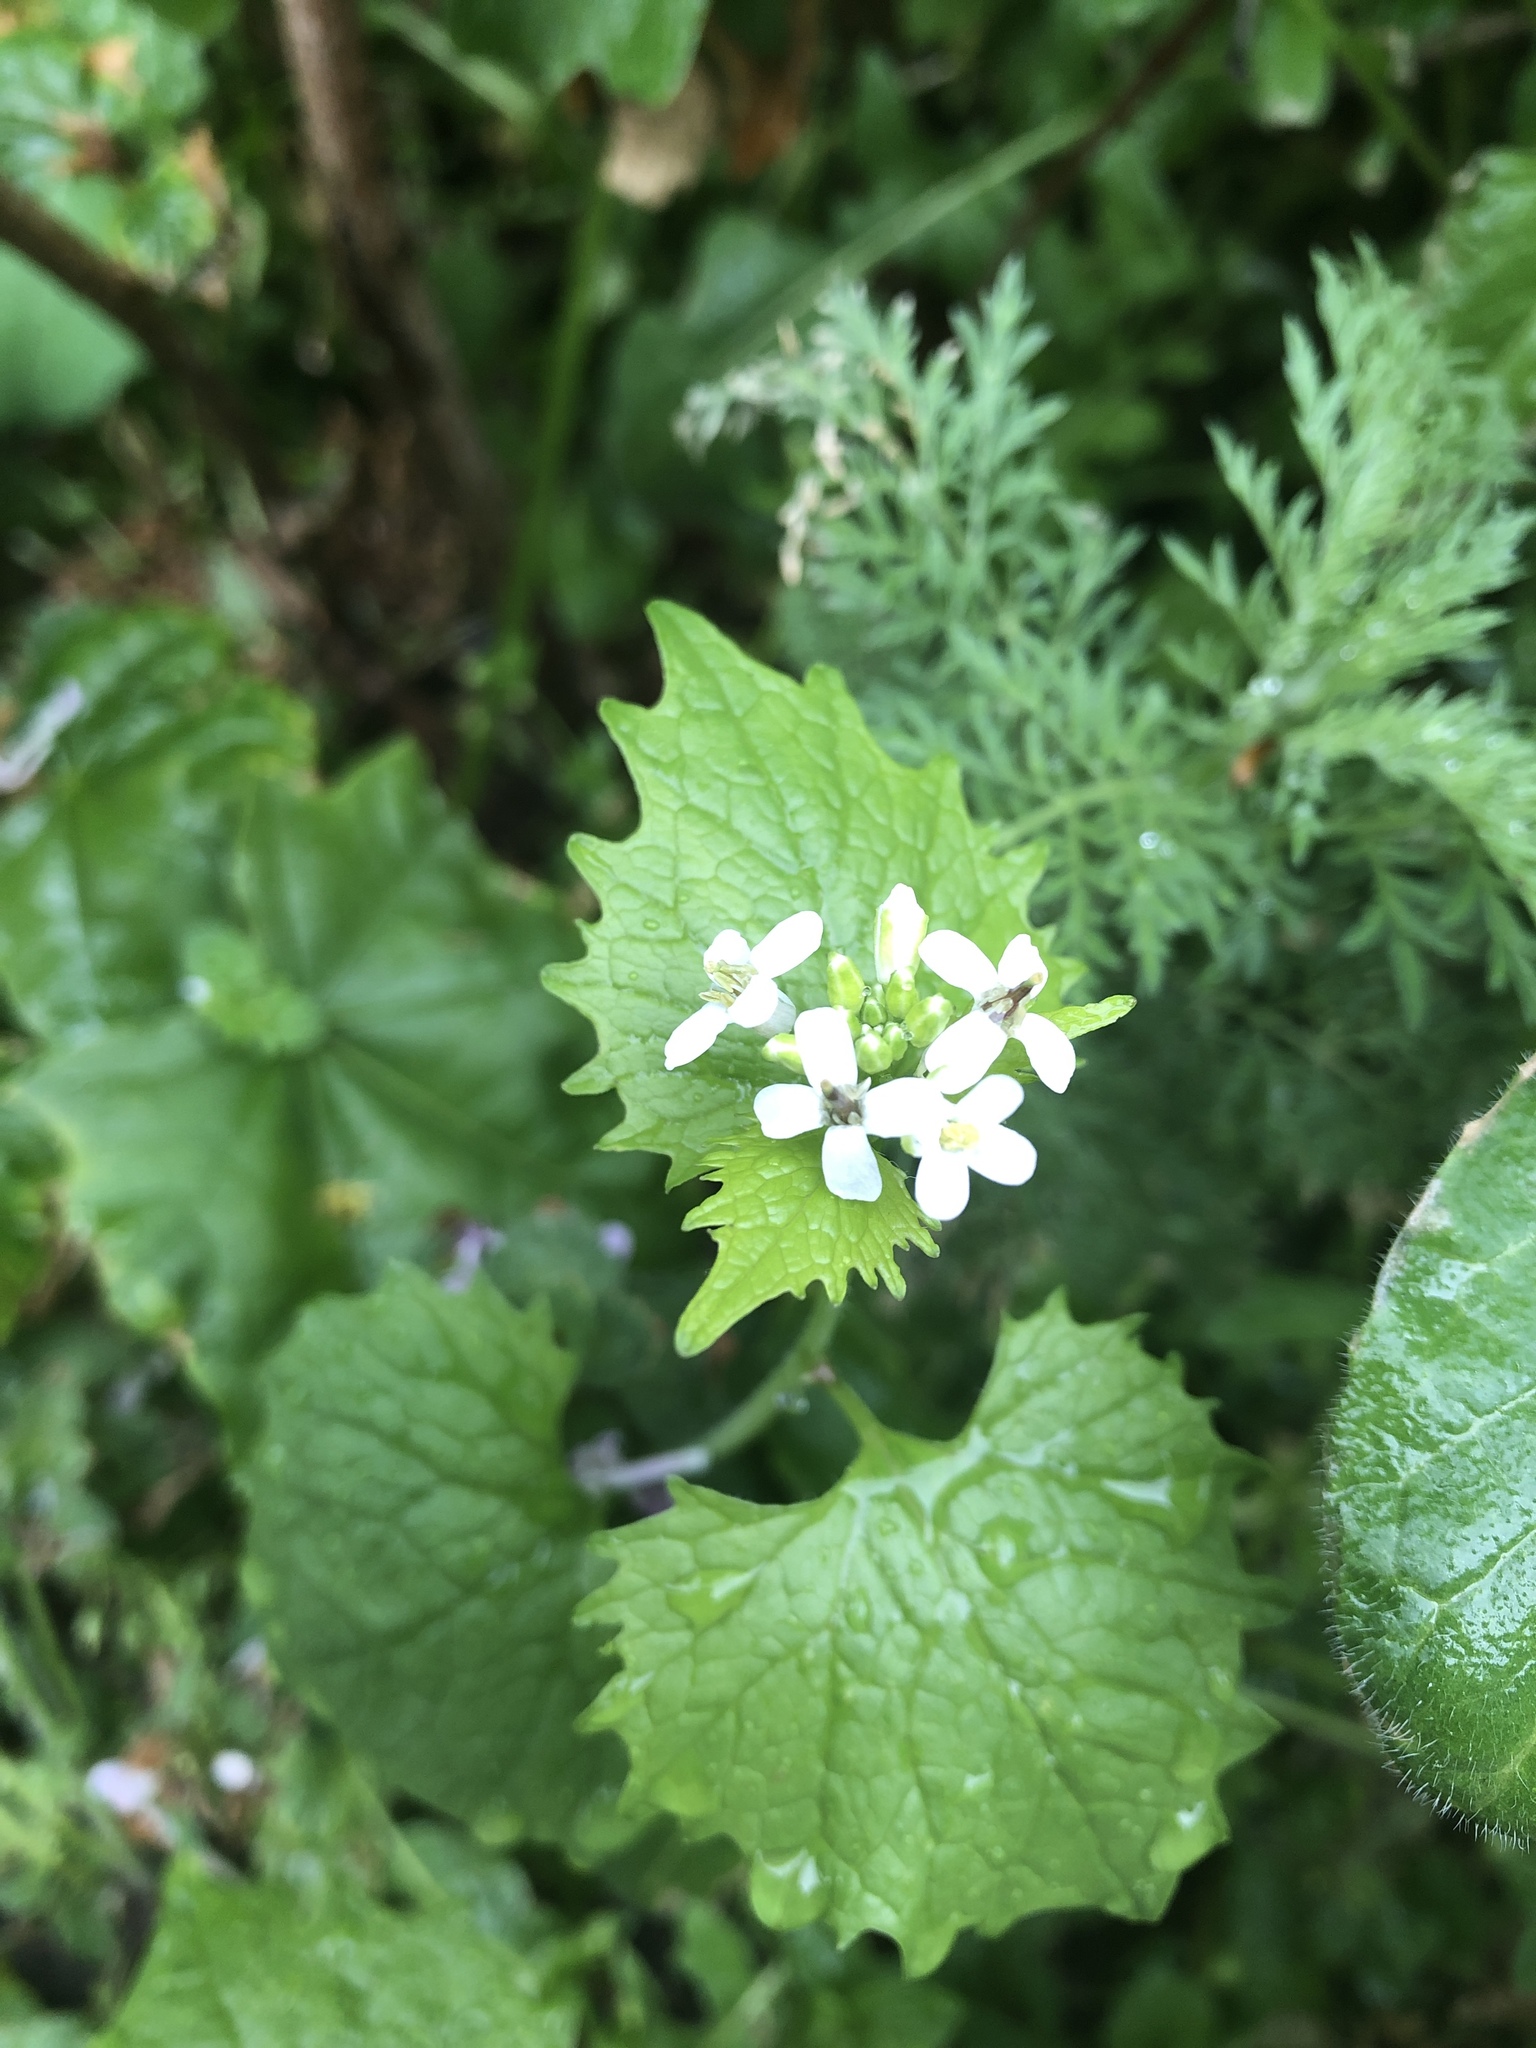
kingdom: Plantae
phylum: Tracheophyta
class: Magnoliopsida
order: Brassicales
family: Brassicaceae
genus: Alliaria
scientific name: Alliaria petiolata
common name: Garlic mustard
